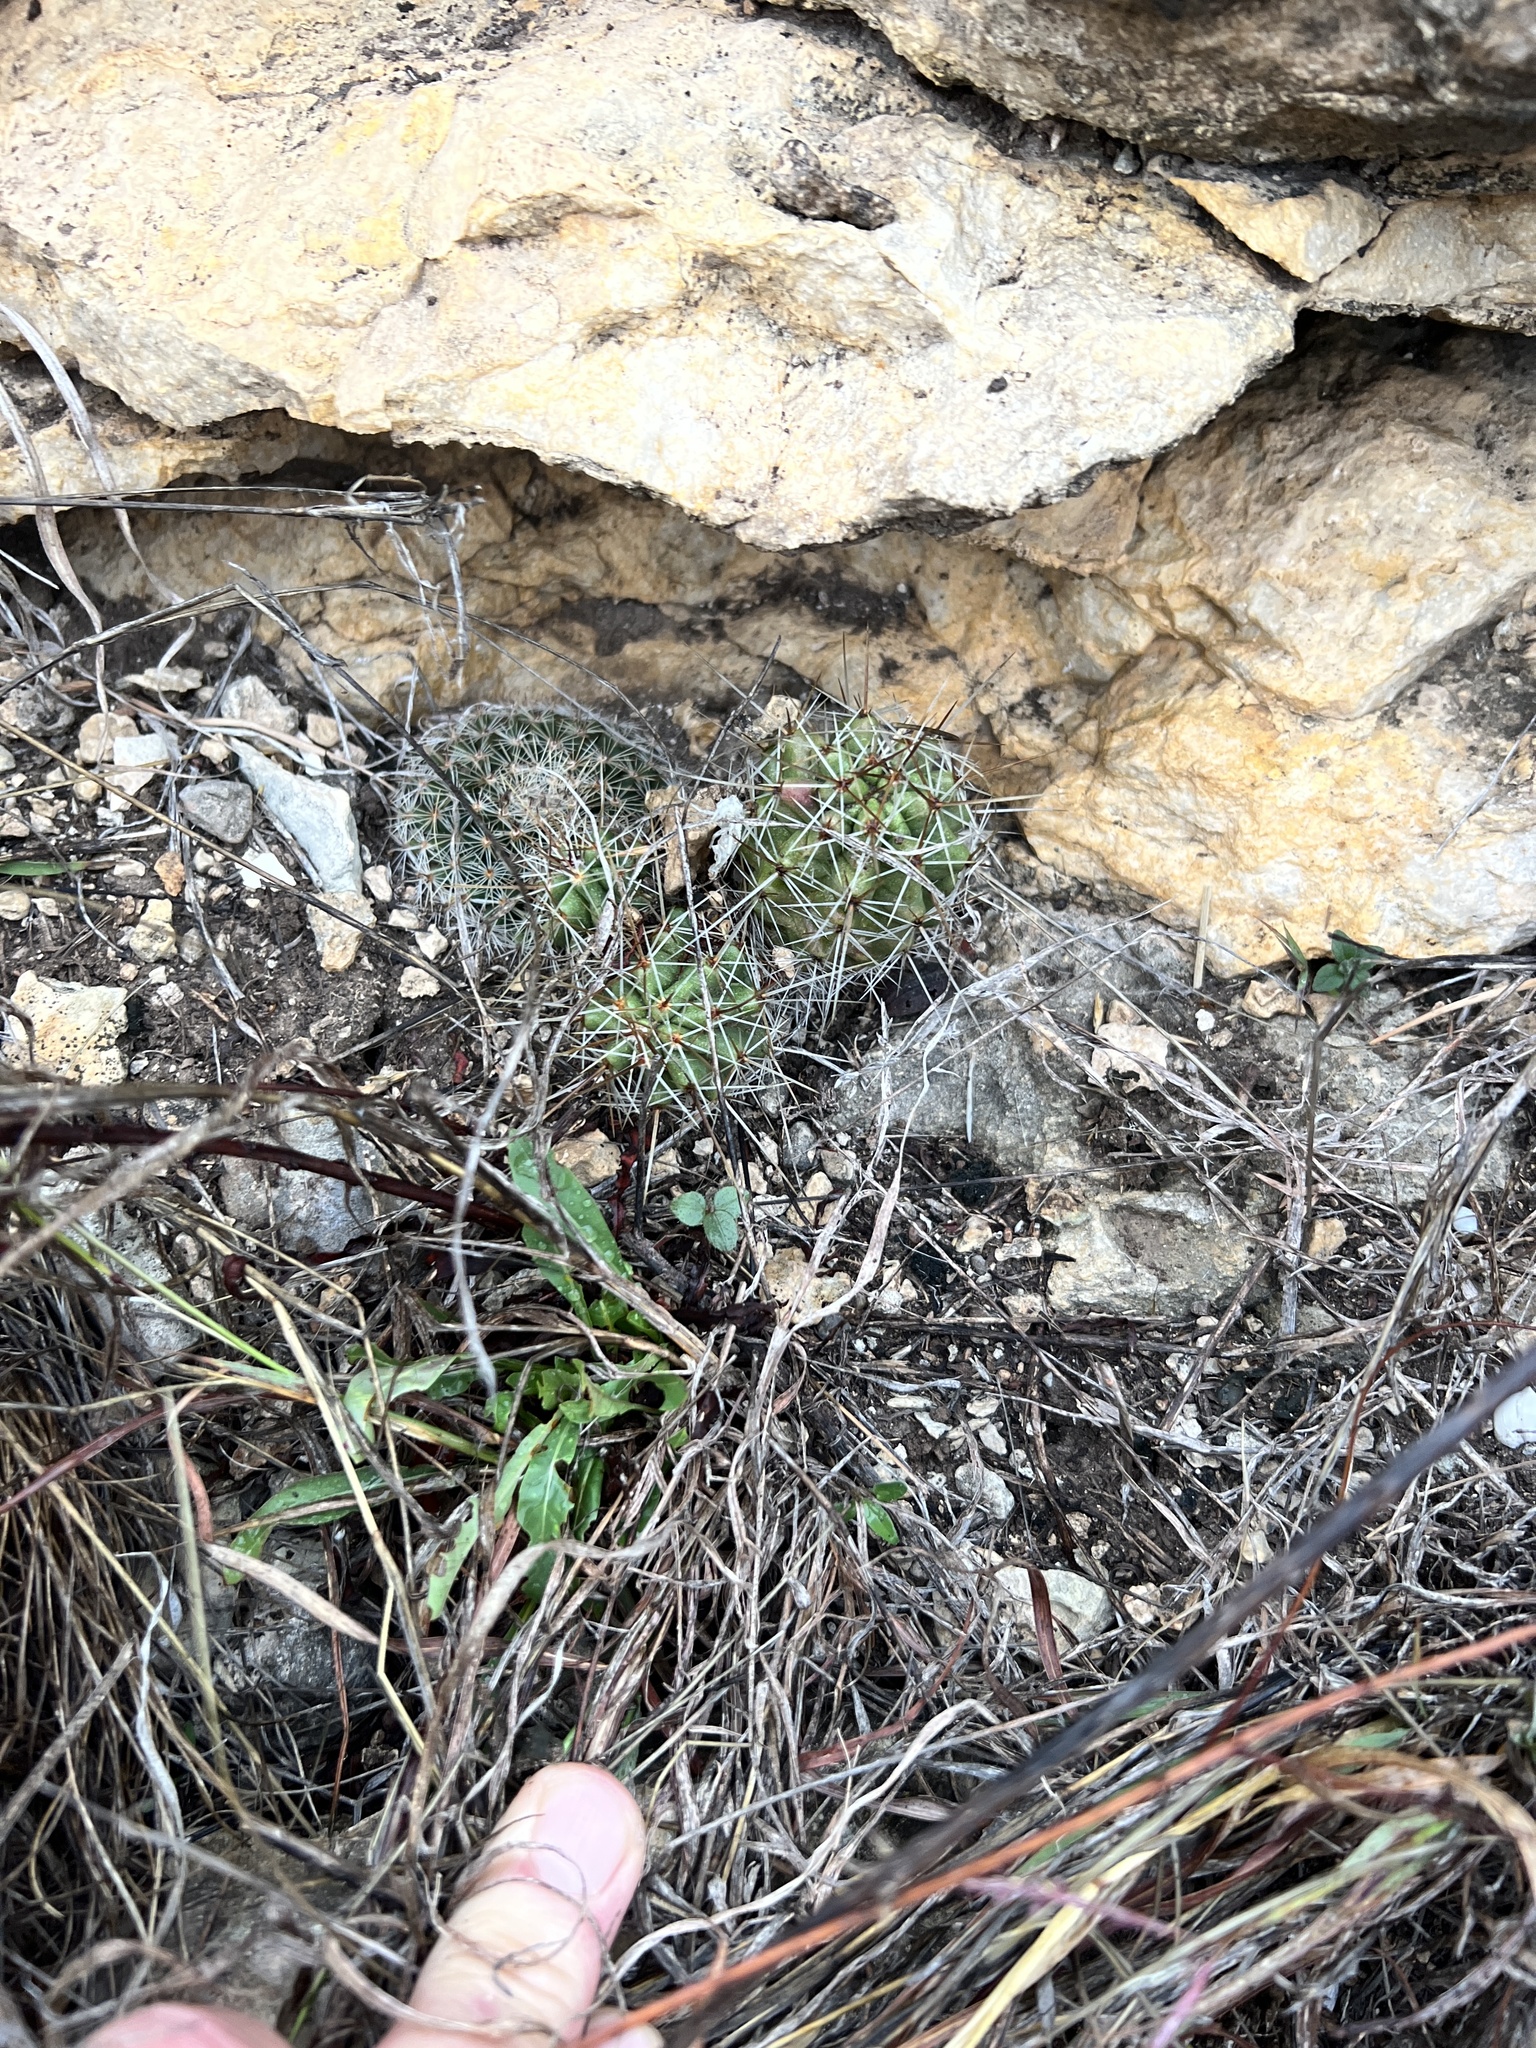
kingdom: Plantae
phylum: Tracheophyta
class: Magnoliopsida
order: Caryophyllales
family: Cactaceae
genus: Mammillaria
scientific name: Mammillaria heyderi
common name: Little nipple cactus
